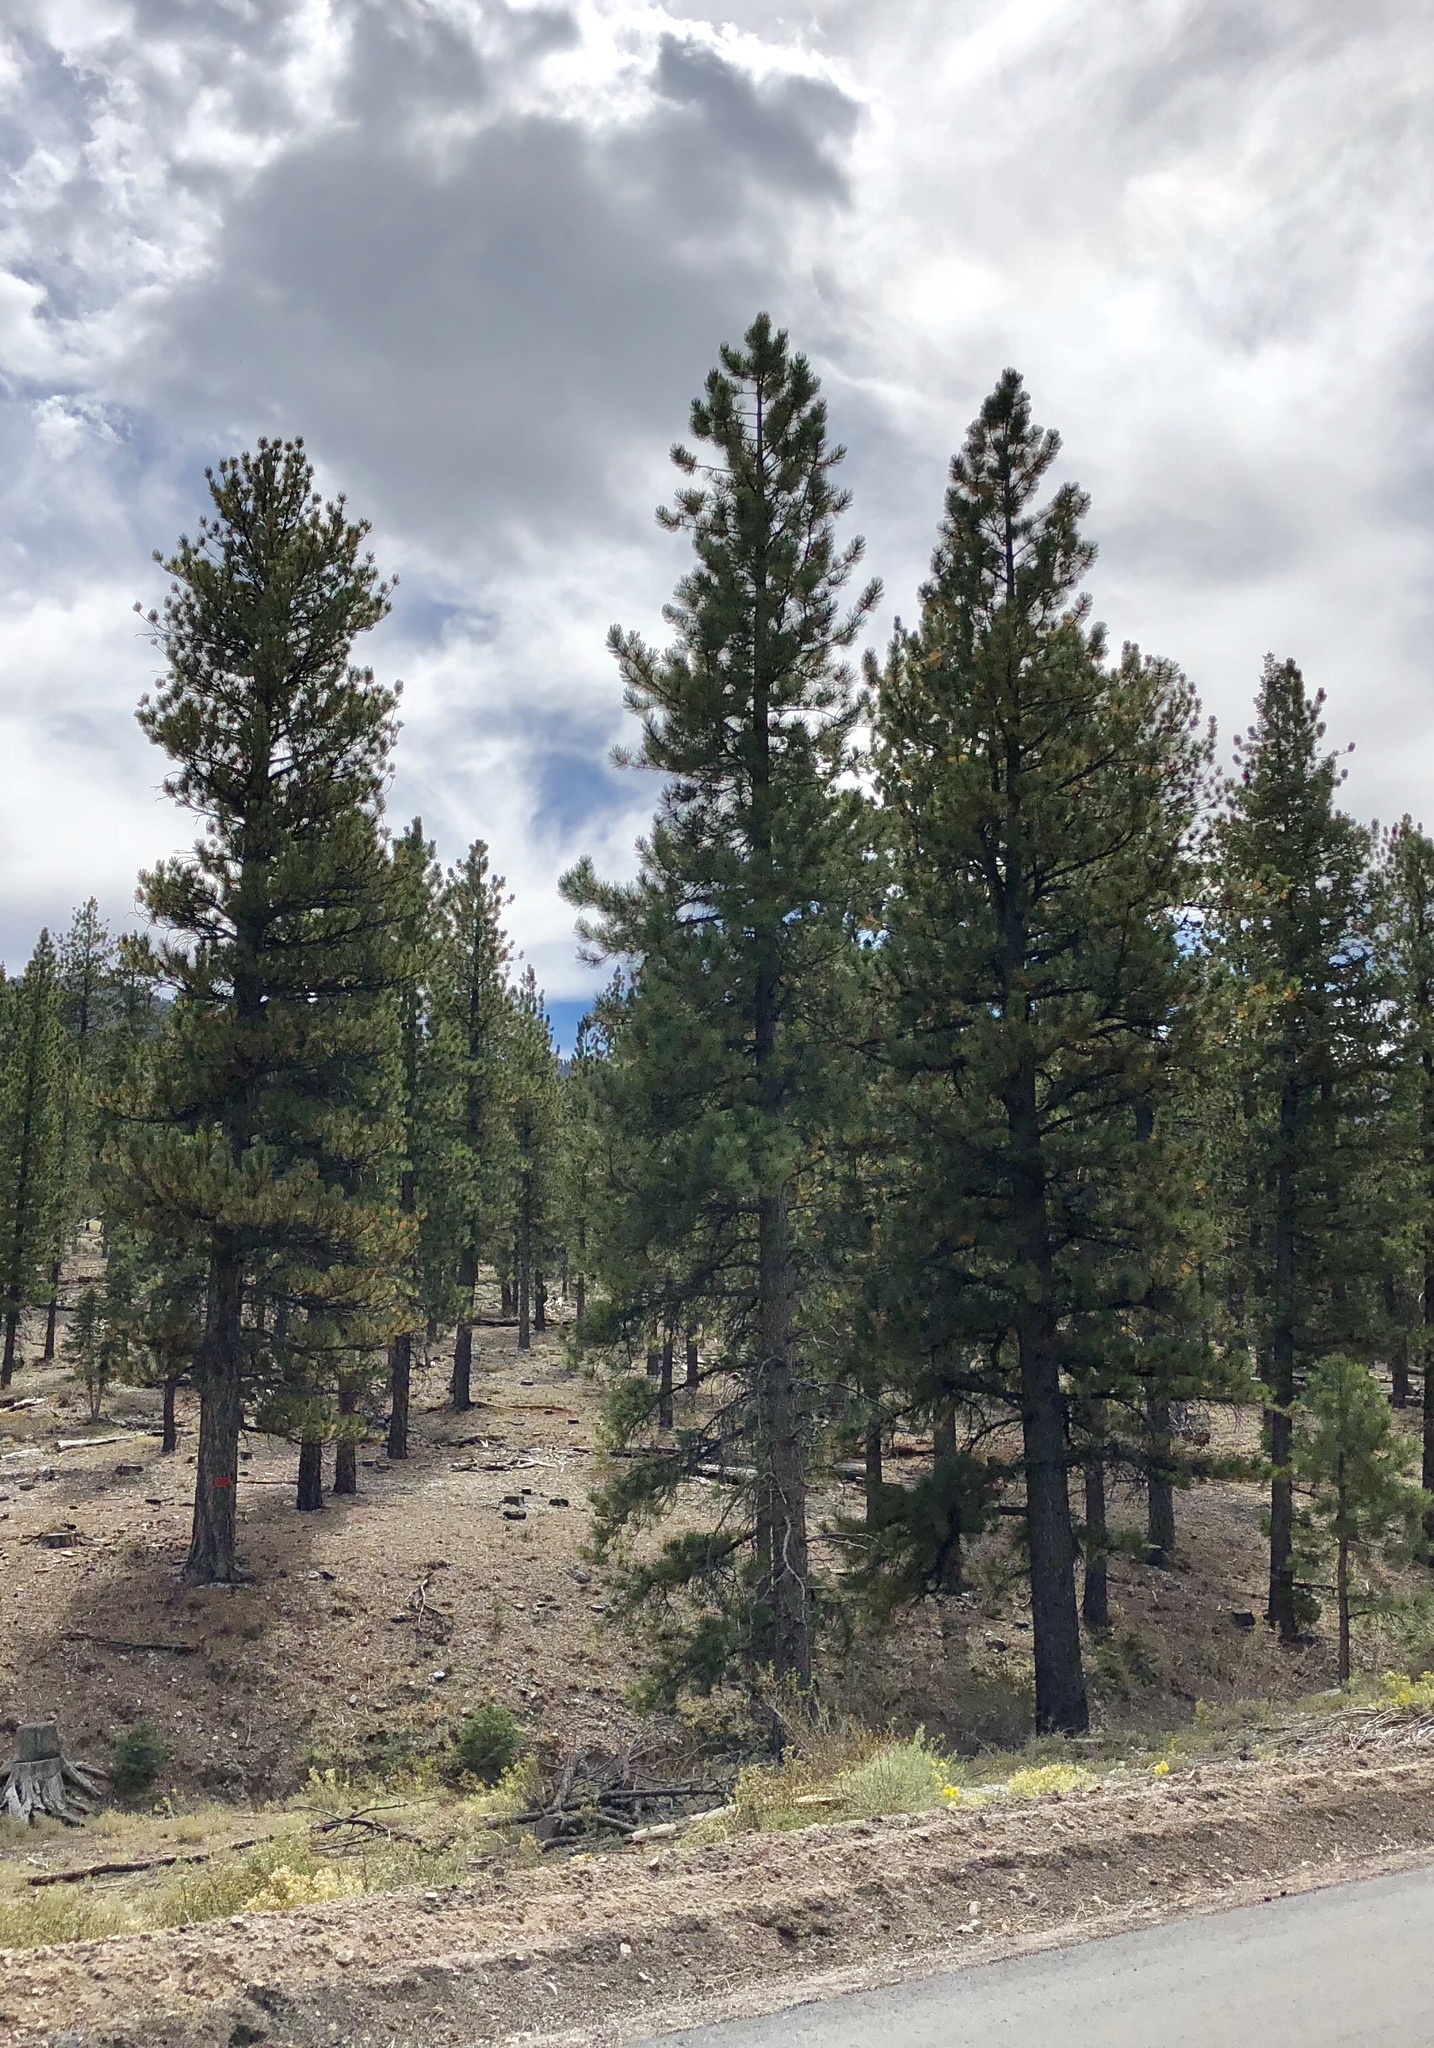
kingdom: Plantae
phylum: Tracheophyta
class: Pinopsida
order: Pinales
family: Pinaceae
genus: Pinus
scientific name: Pinus ponderosa
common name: Western yellow-pine
